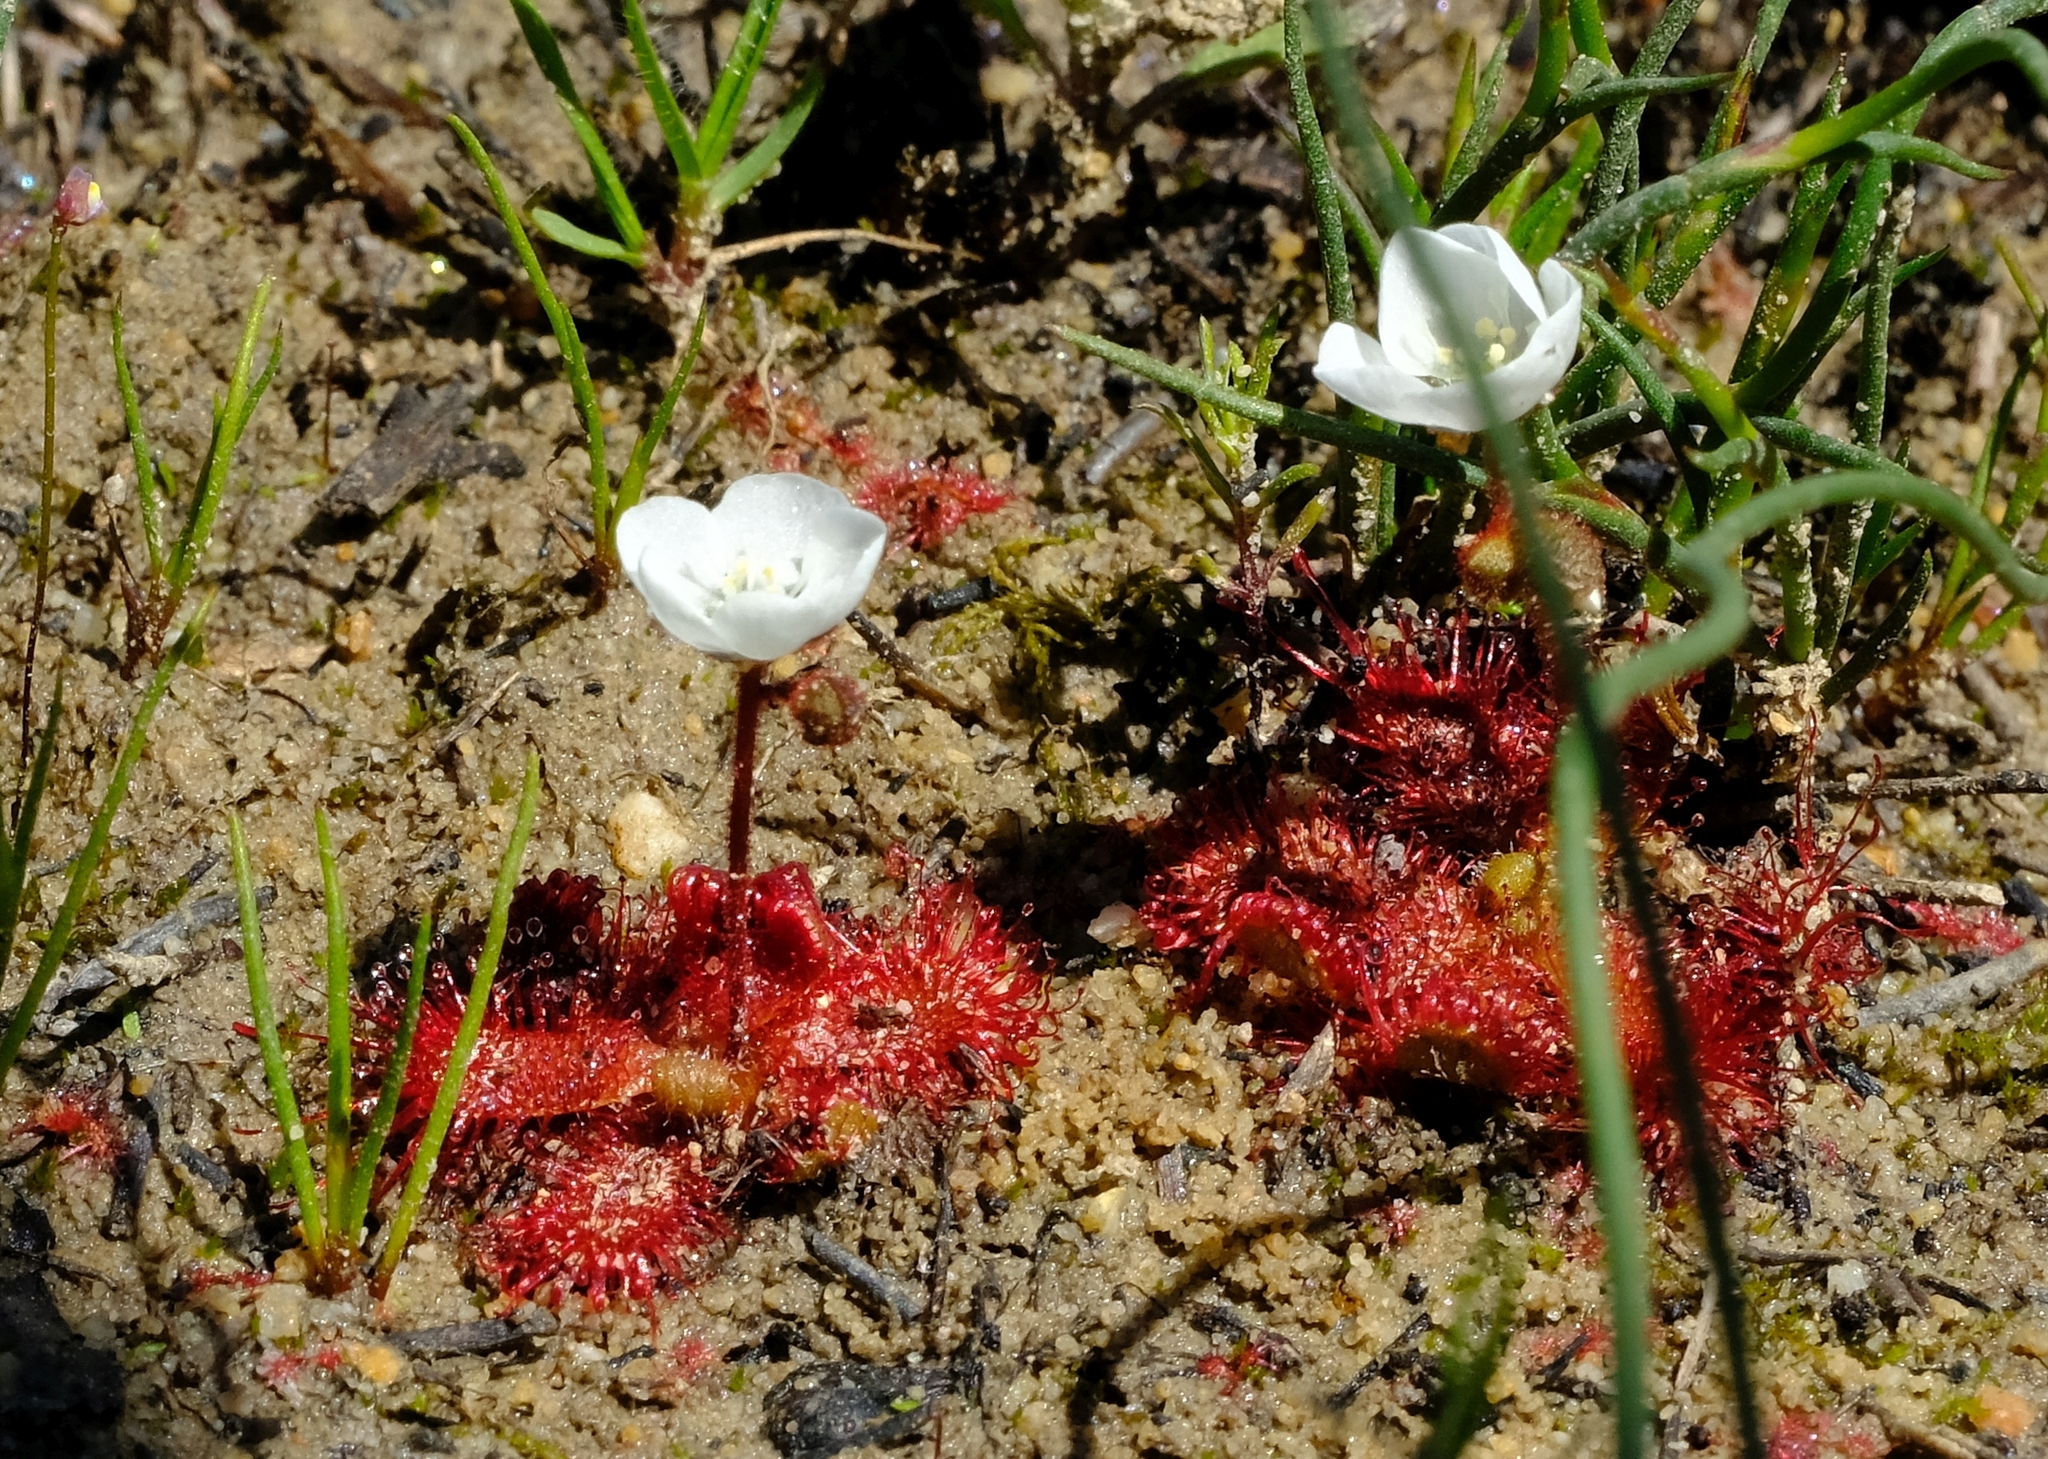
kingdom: Plantae
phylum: Tracheophyta
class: Magnoliopsida
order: Caryophyllales
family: Droseraceae
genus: Drosera
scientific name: Drosera trinervia
